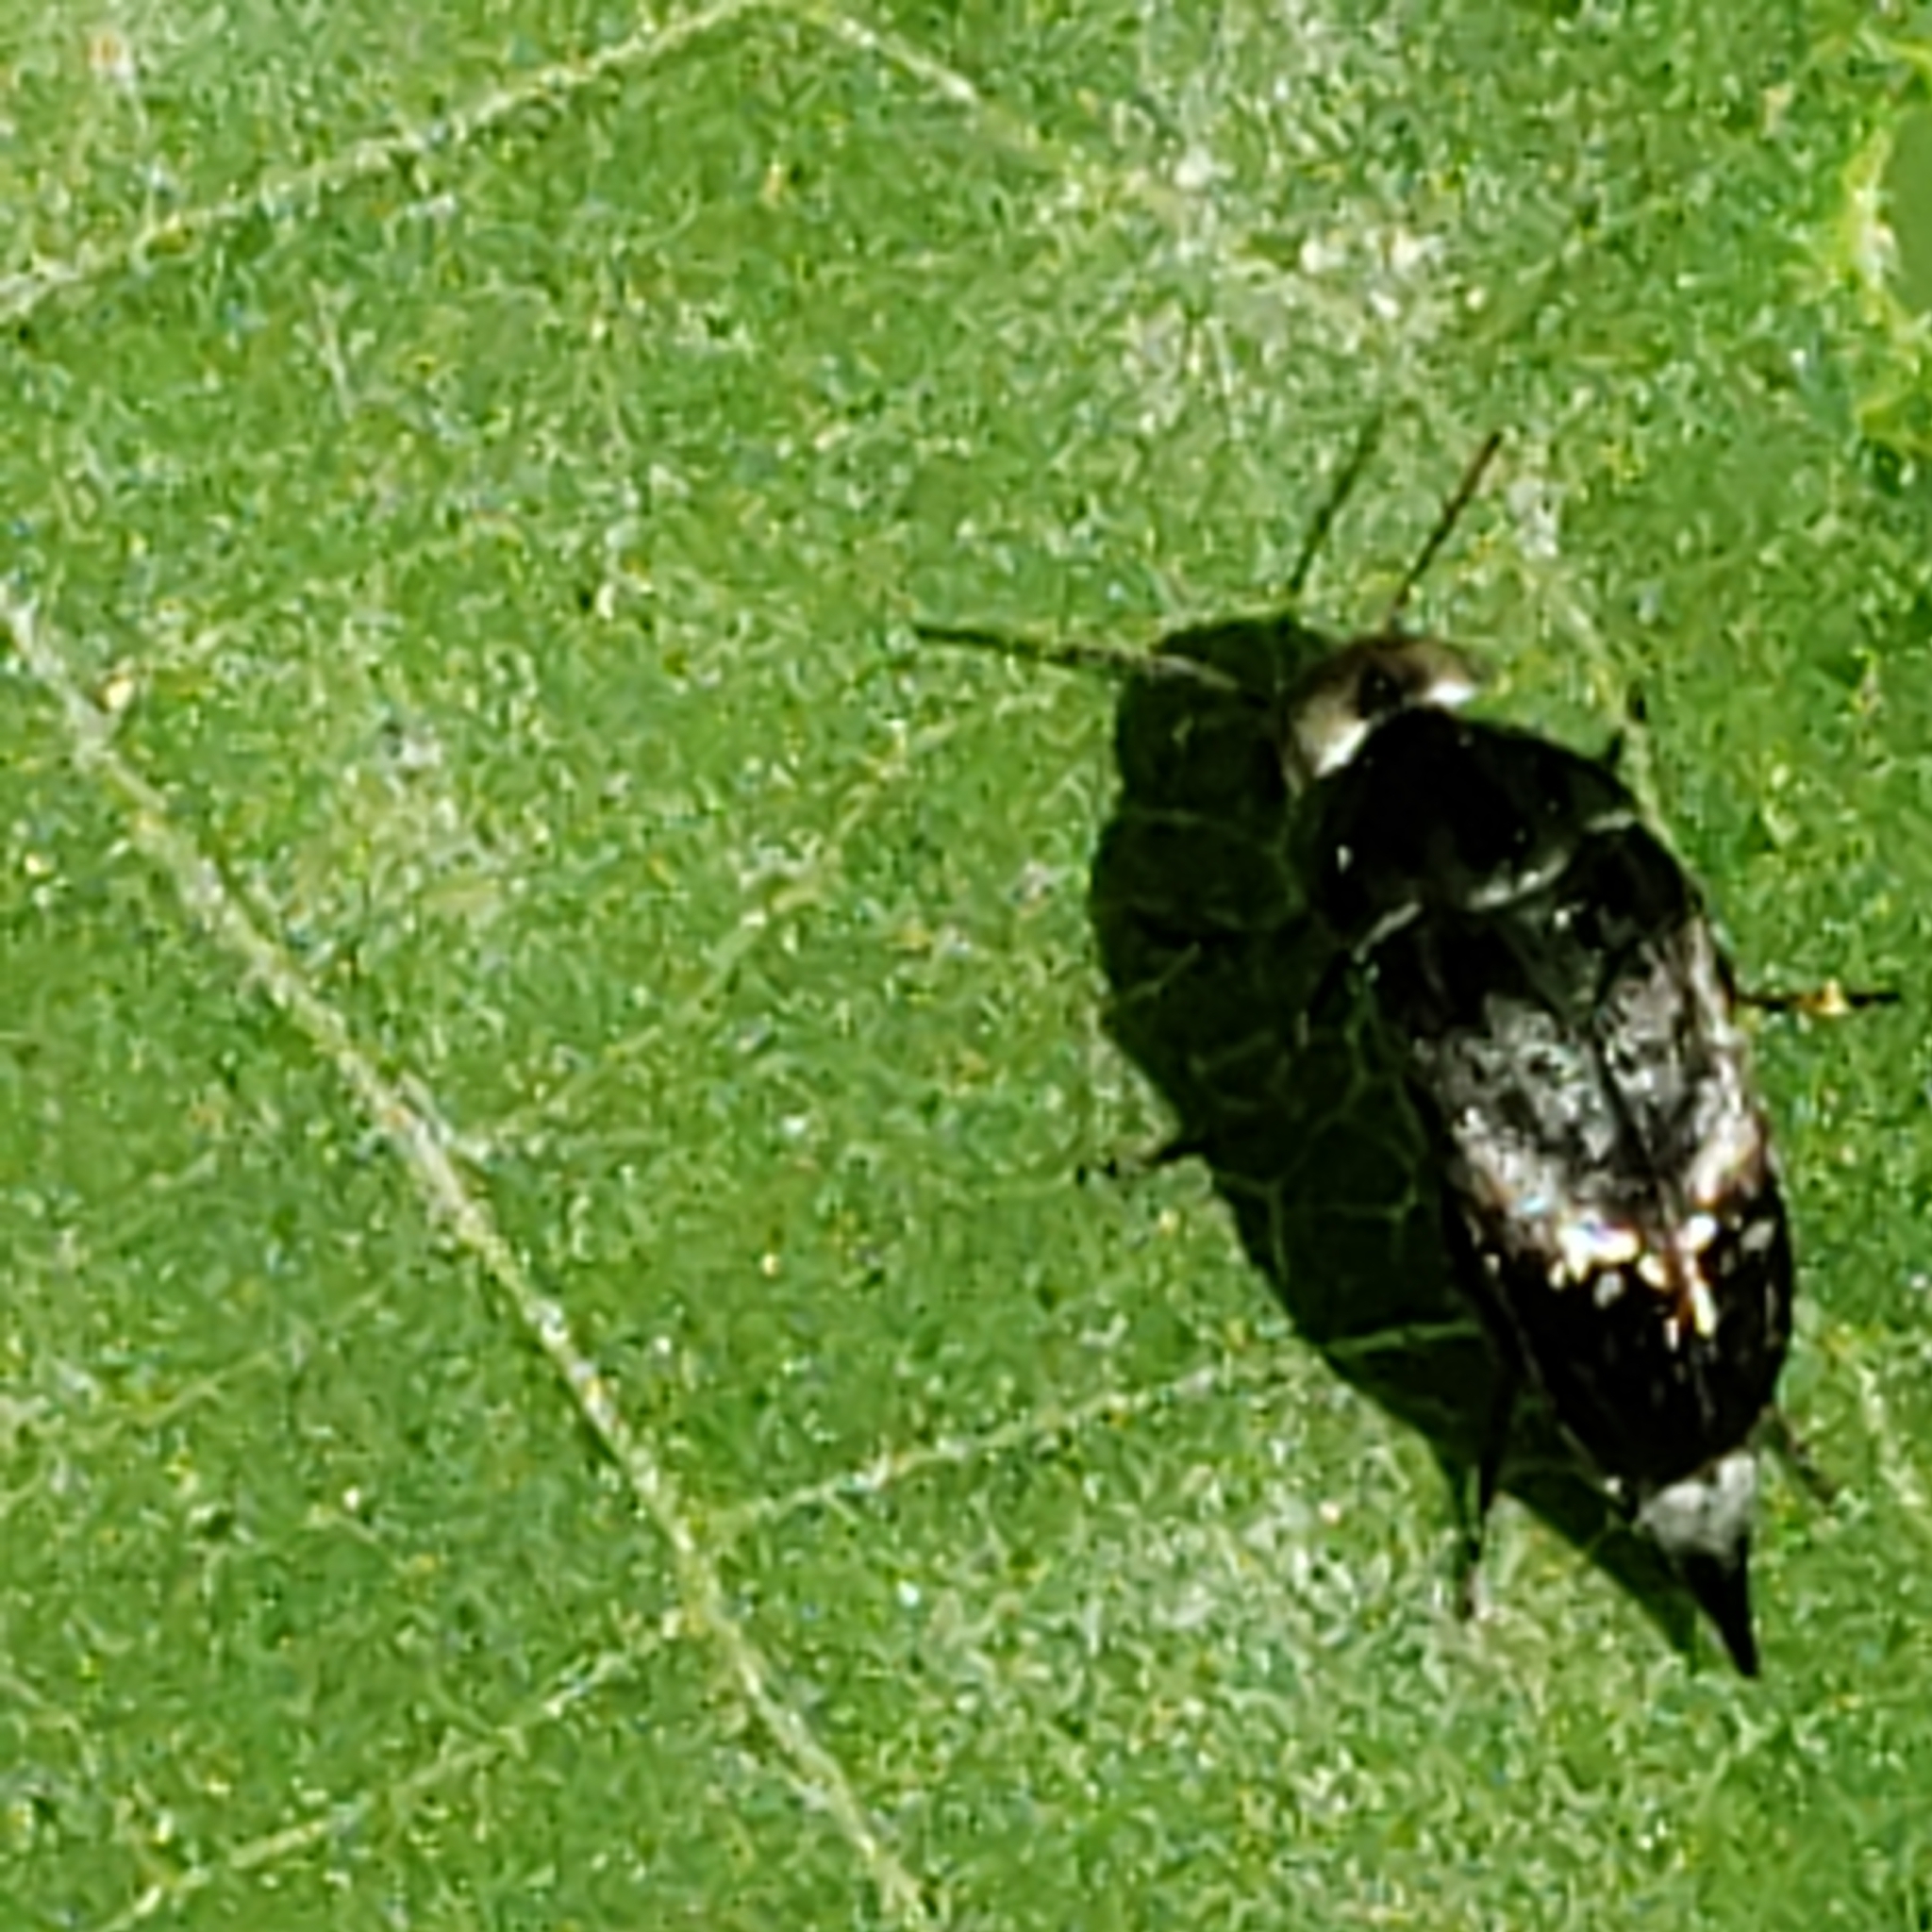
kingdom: Animalia
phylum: Arthropoda
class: Insecta
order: Coleoptera
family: Mordellidae
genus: Mordella
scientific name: Mordella marginata
